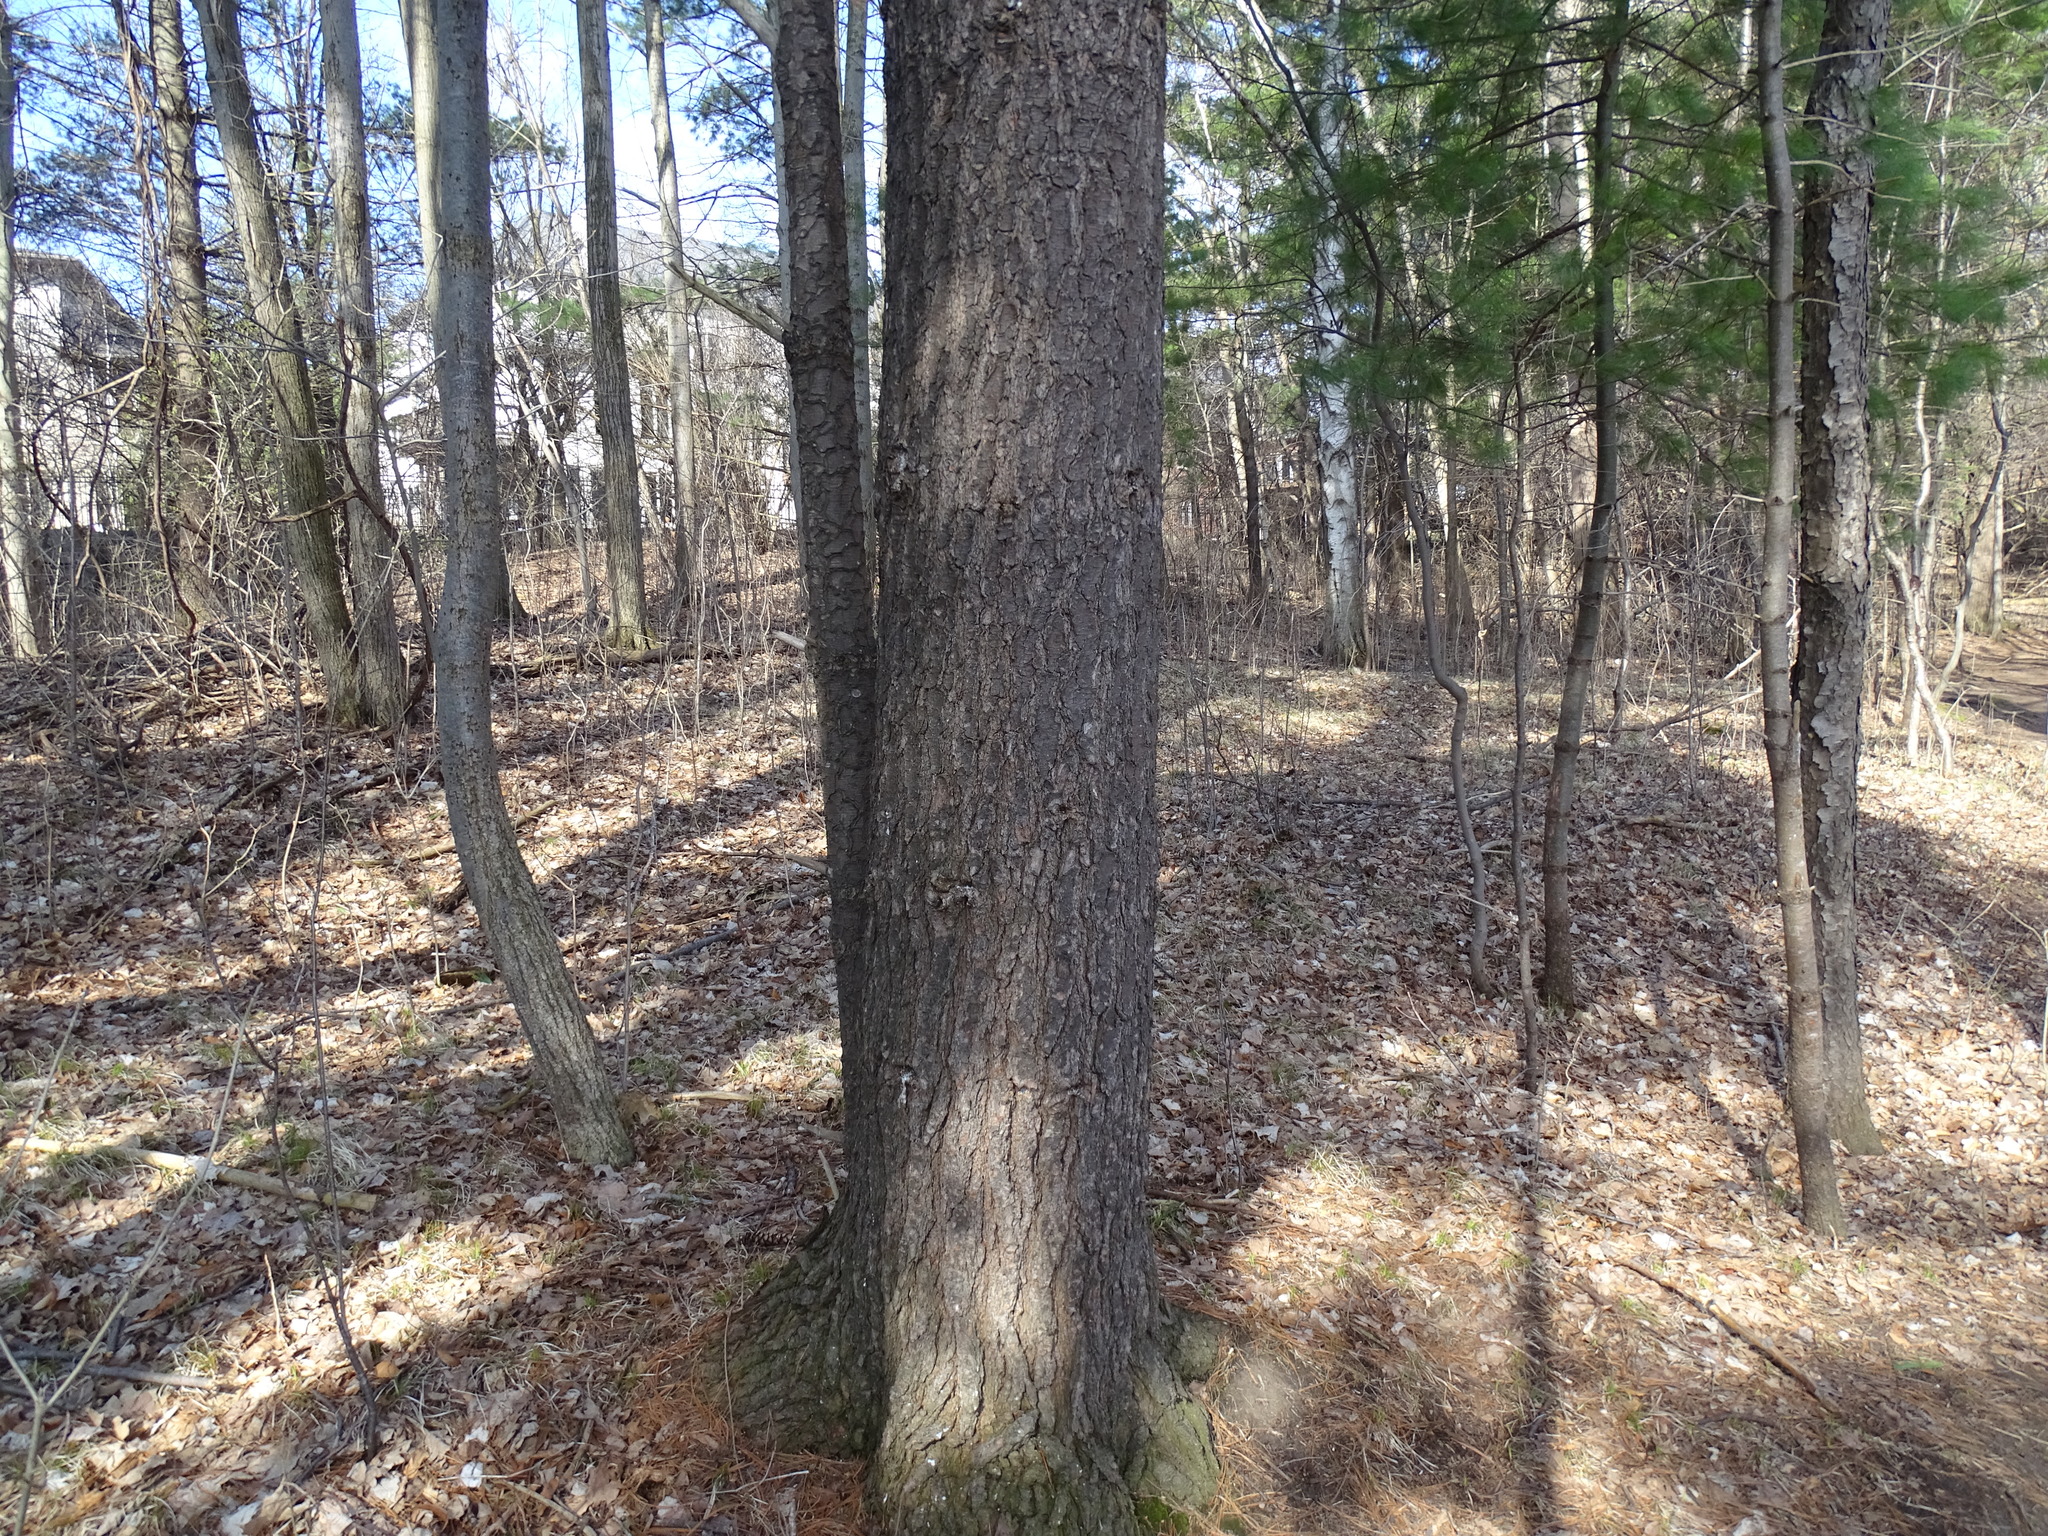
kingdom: Plantae
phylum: Tracheophyta
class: Pinopsida
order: Pinales
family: Pinaceae
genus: Pinus
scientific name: Pinus strobus
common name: Weymouth pine
